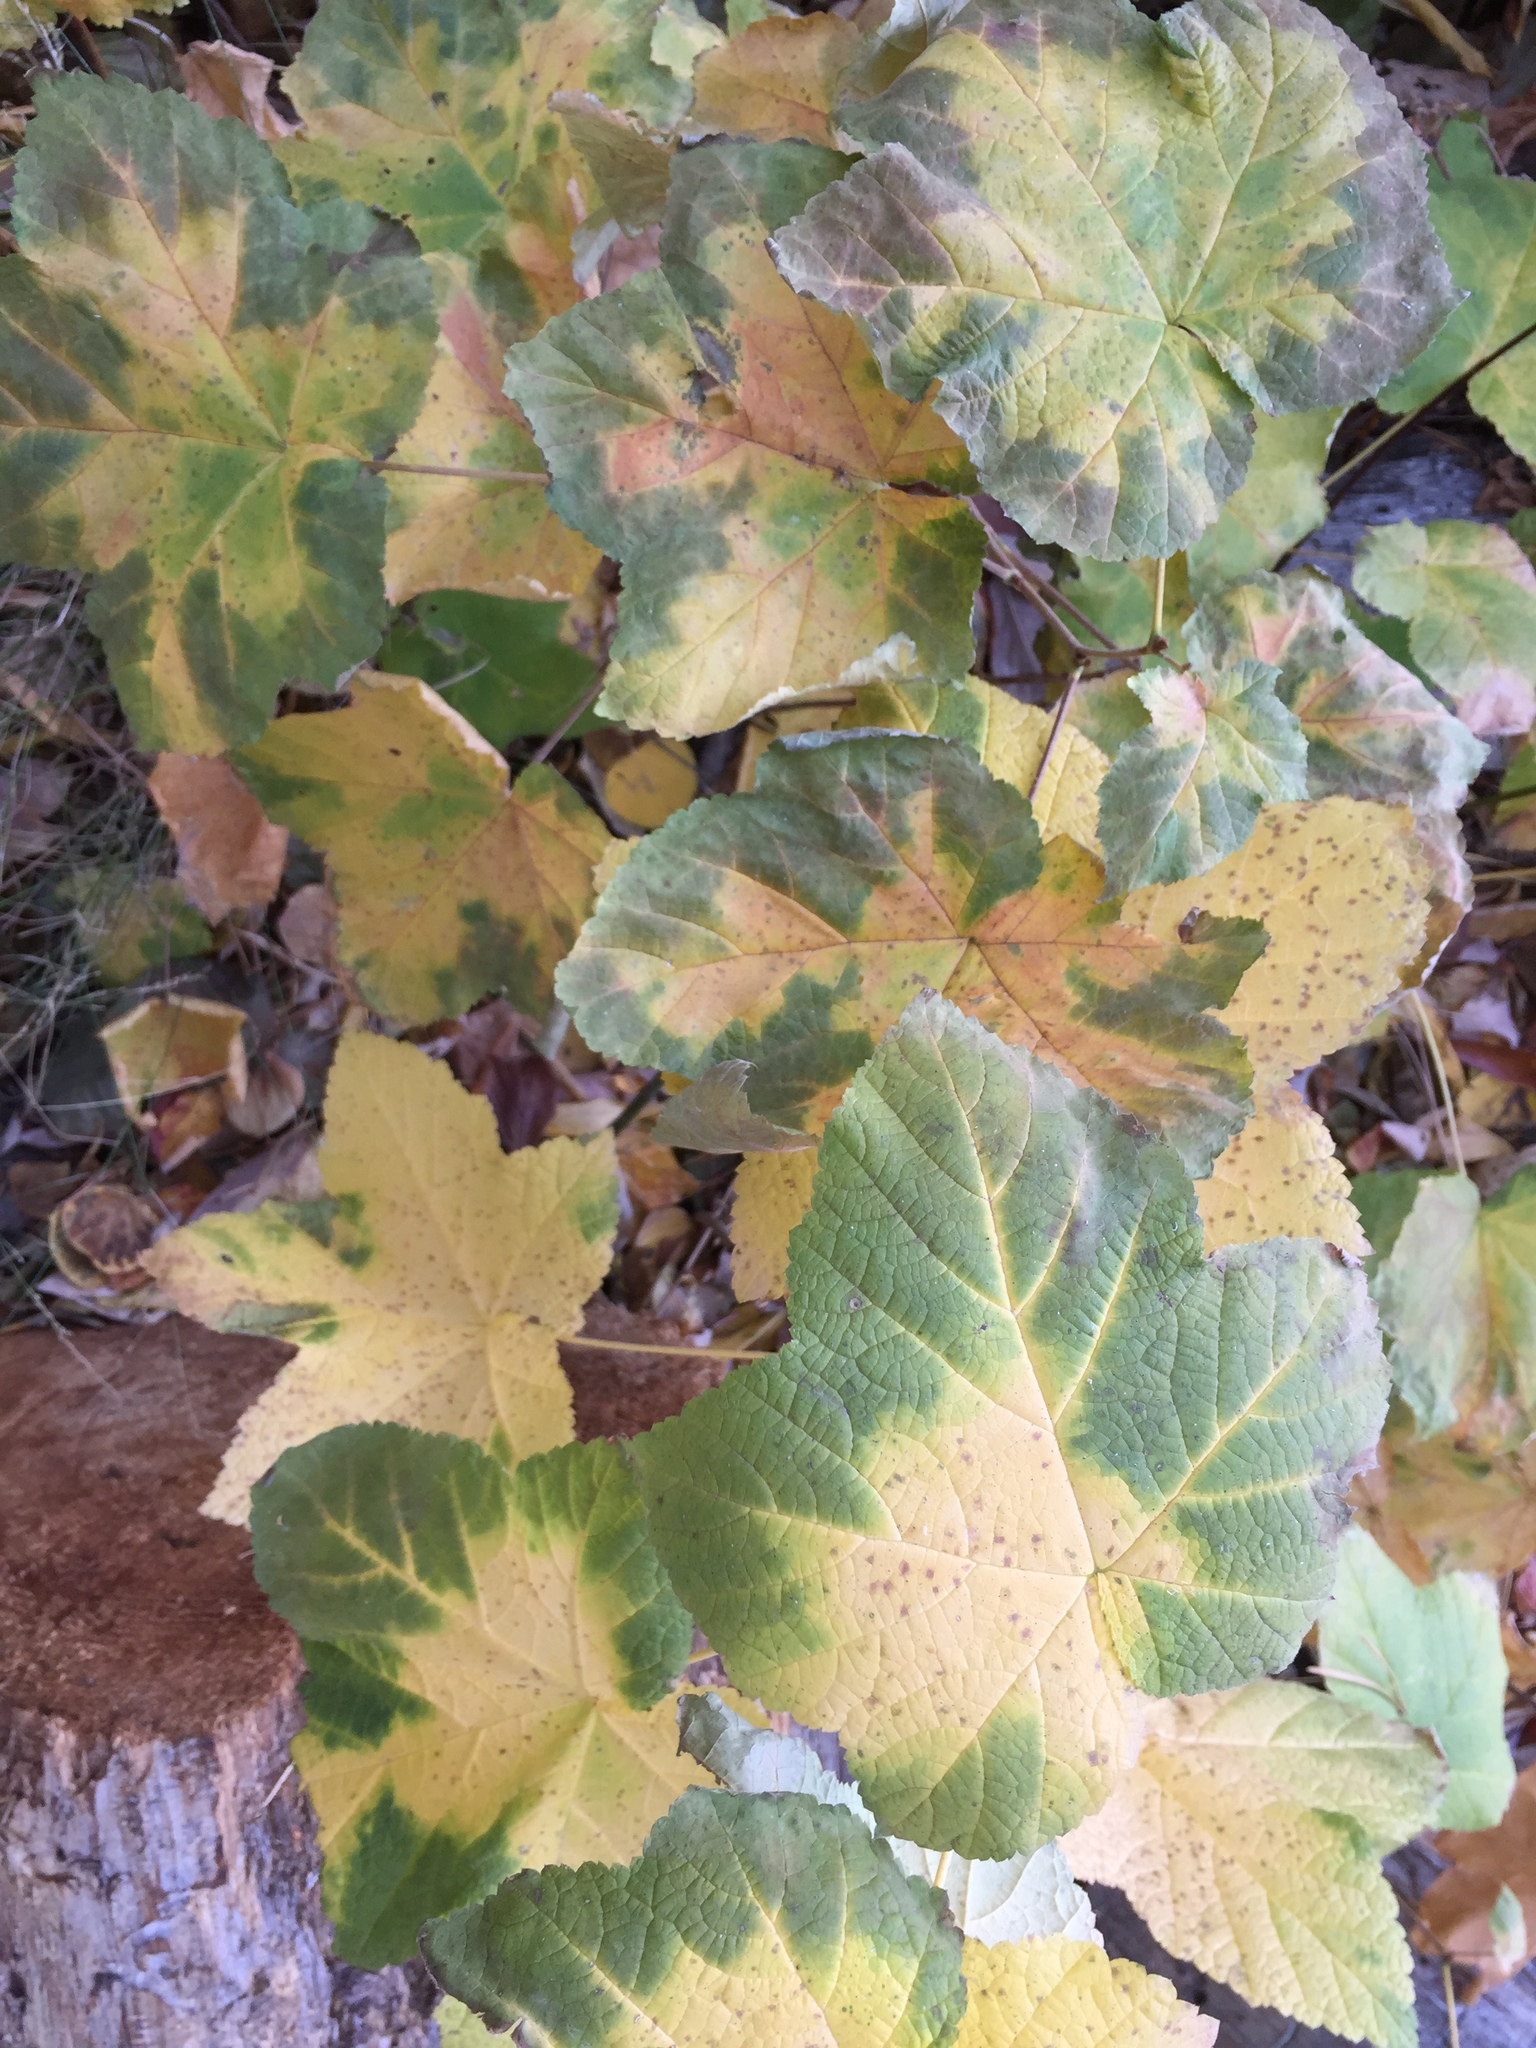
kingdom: Plantae
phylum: Tracheophyta
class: Magnoliopsida
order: Rosales
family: Rosaceae
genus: Rubus
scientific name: Rubus parviflorus
